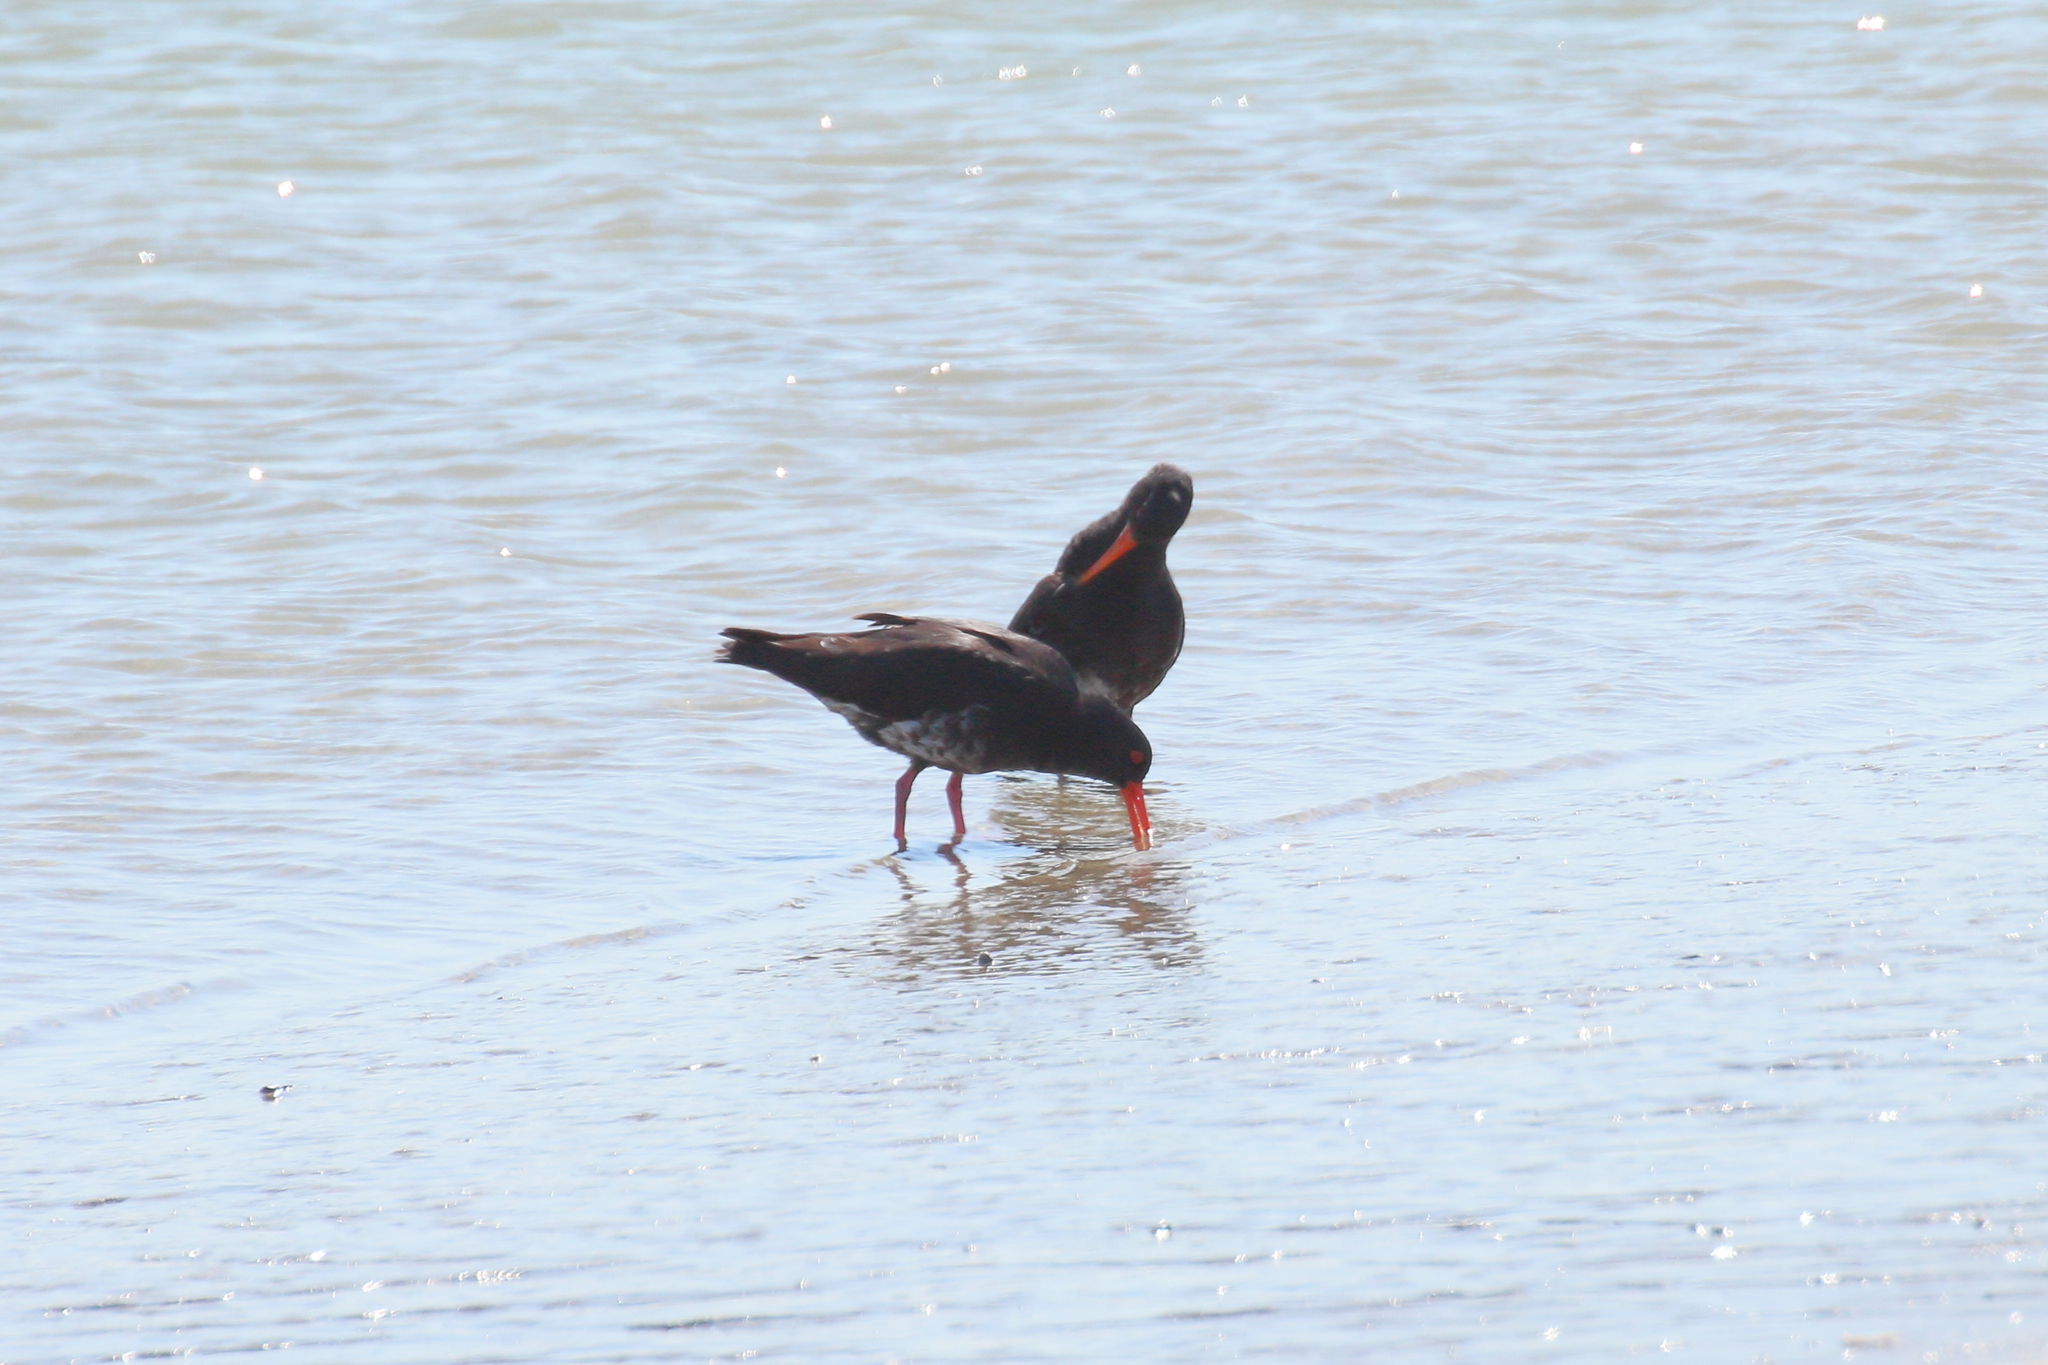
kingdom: Animalia
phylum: Chordata
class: Aves
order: Charadriiformes
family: Haematopodidae
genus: Haematopus
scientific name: Haematopus unicolor
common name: Variable oystercatcher
